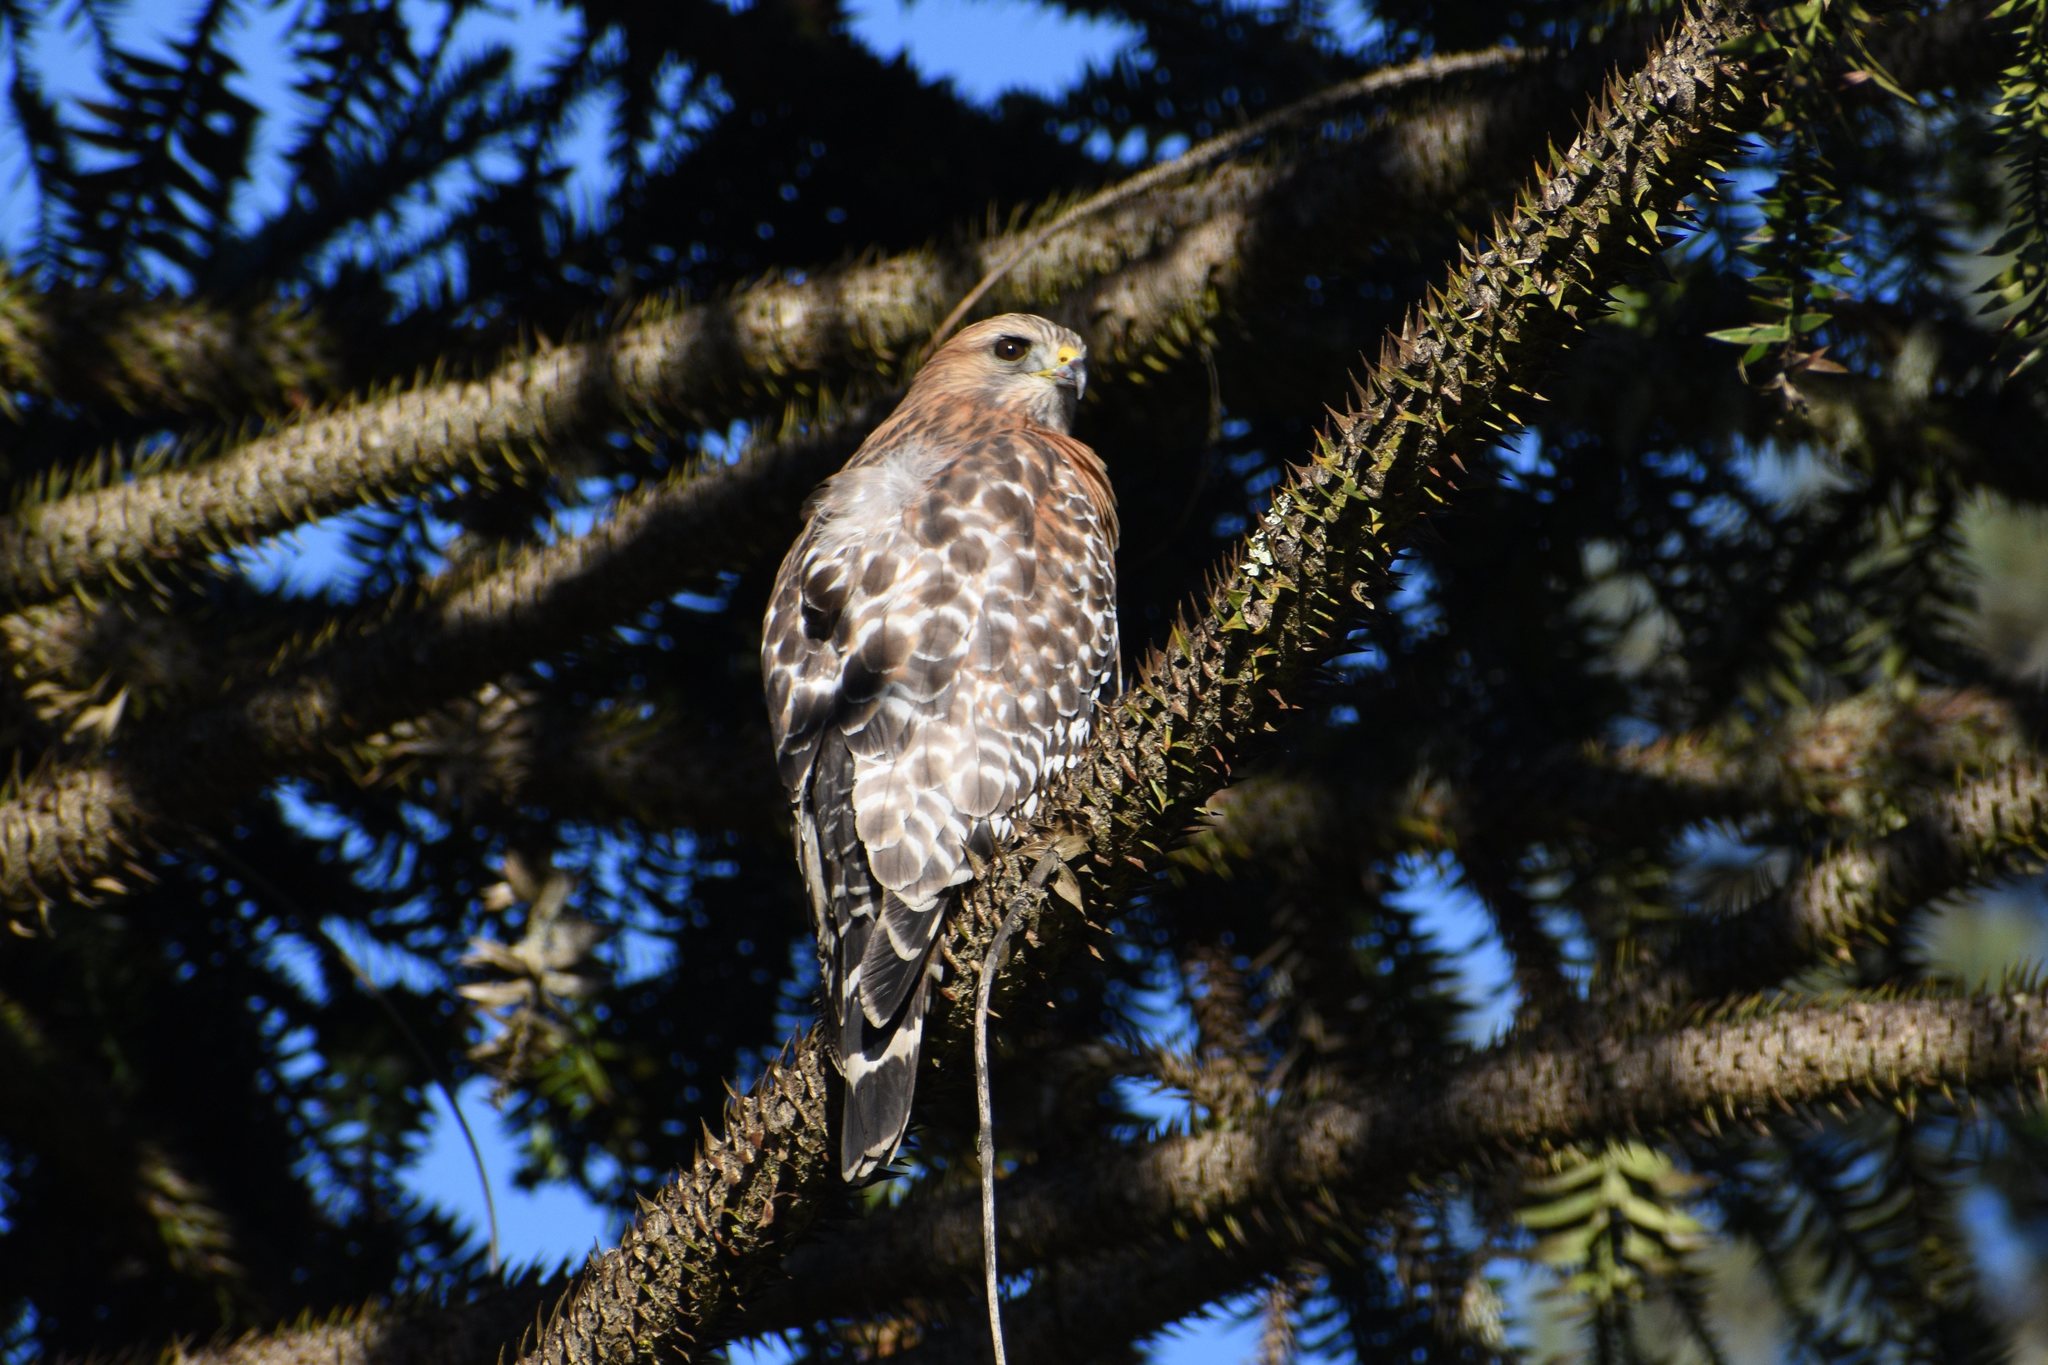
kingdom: Animalia
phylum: Chordata
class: Aves
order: Accipitriformes
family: Accipitridae
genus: Buteo
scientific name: Buteo lineatus
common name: Red-shouldered hawk
